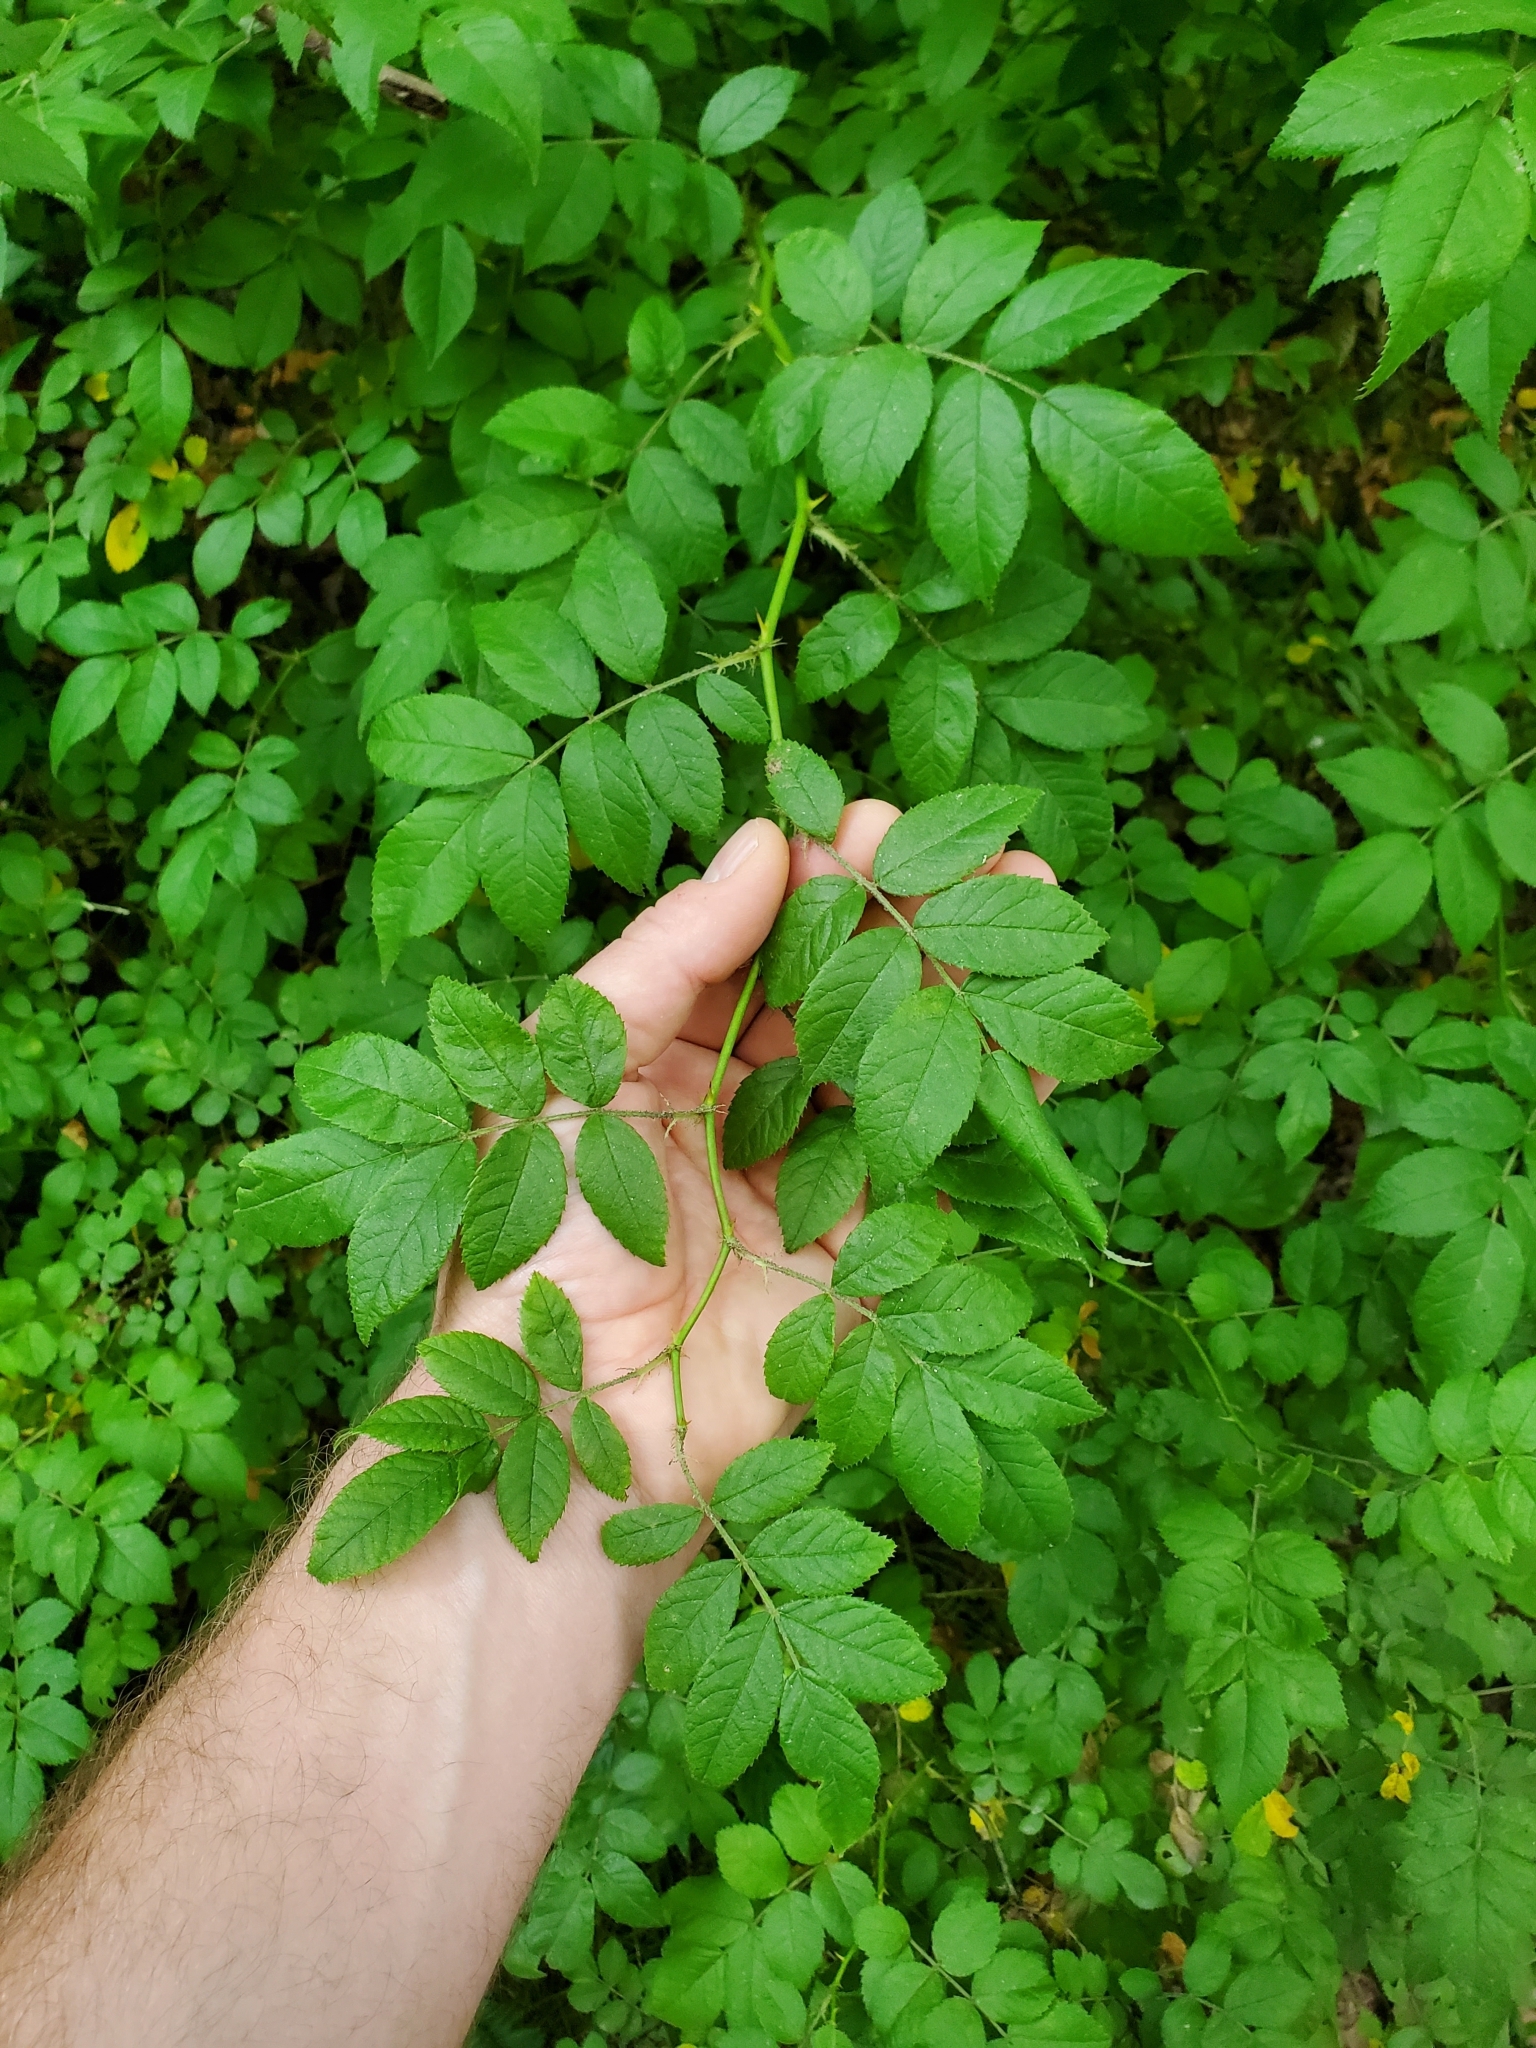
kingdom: Plantae
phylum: Tracheophyta
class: Magnoliopsida
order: Rosales
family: Rosaceae
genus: Rosa
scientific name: Rosa multiflora
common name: Multiflora rose
